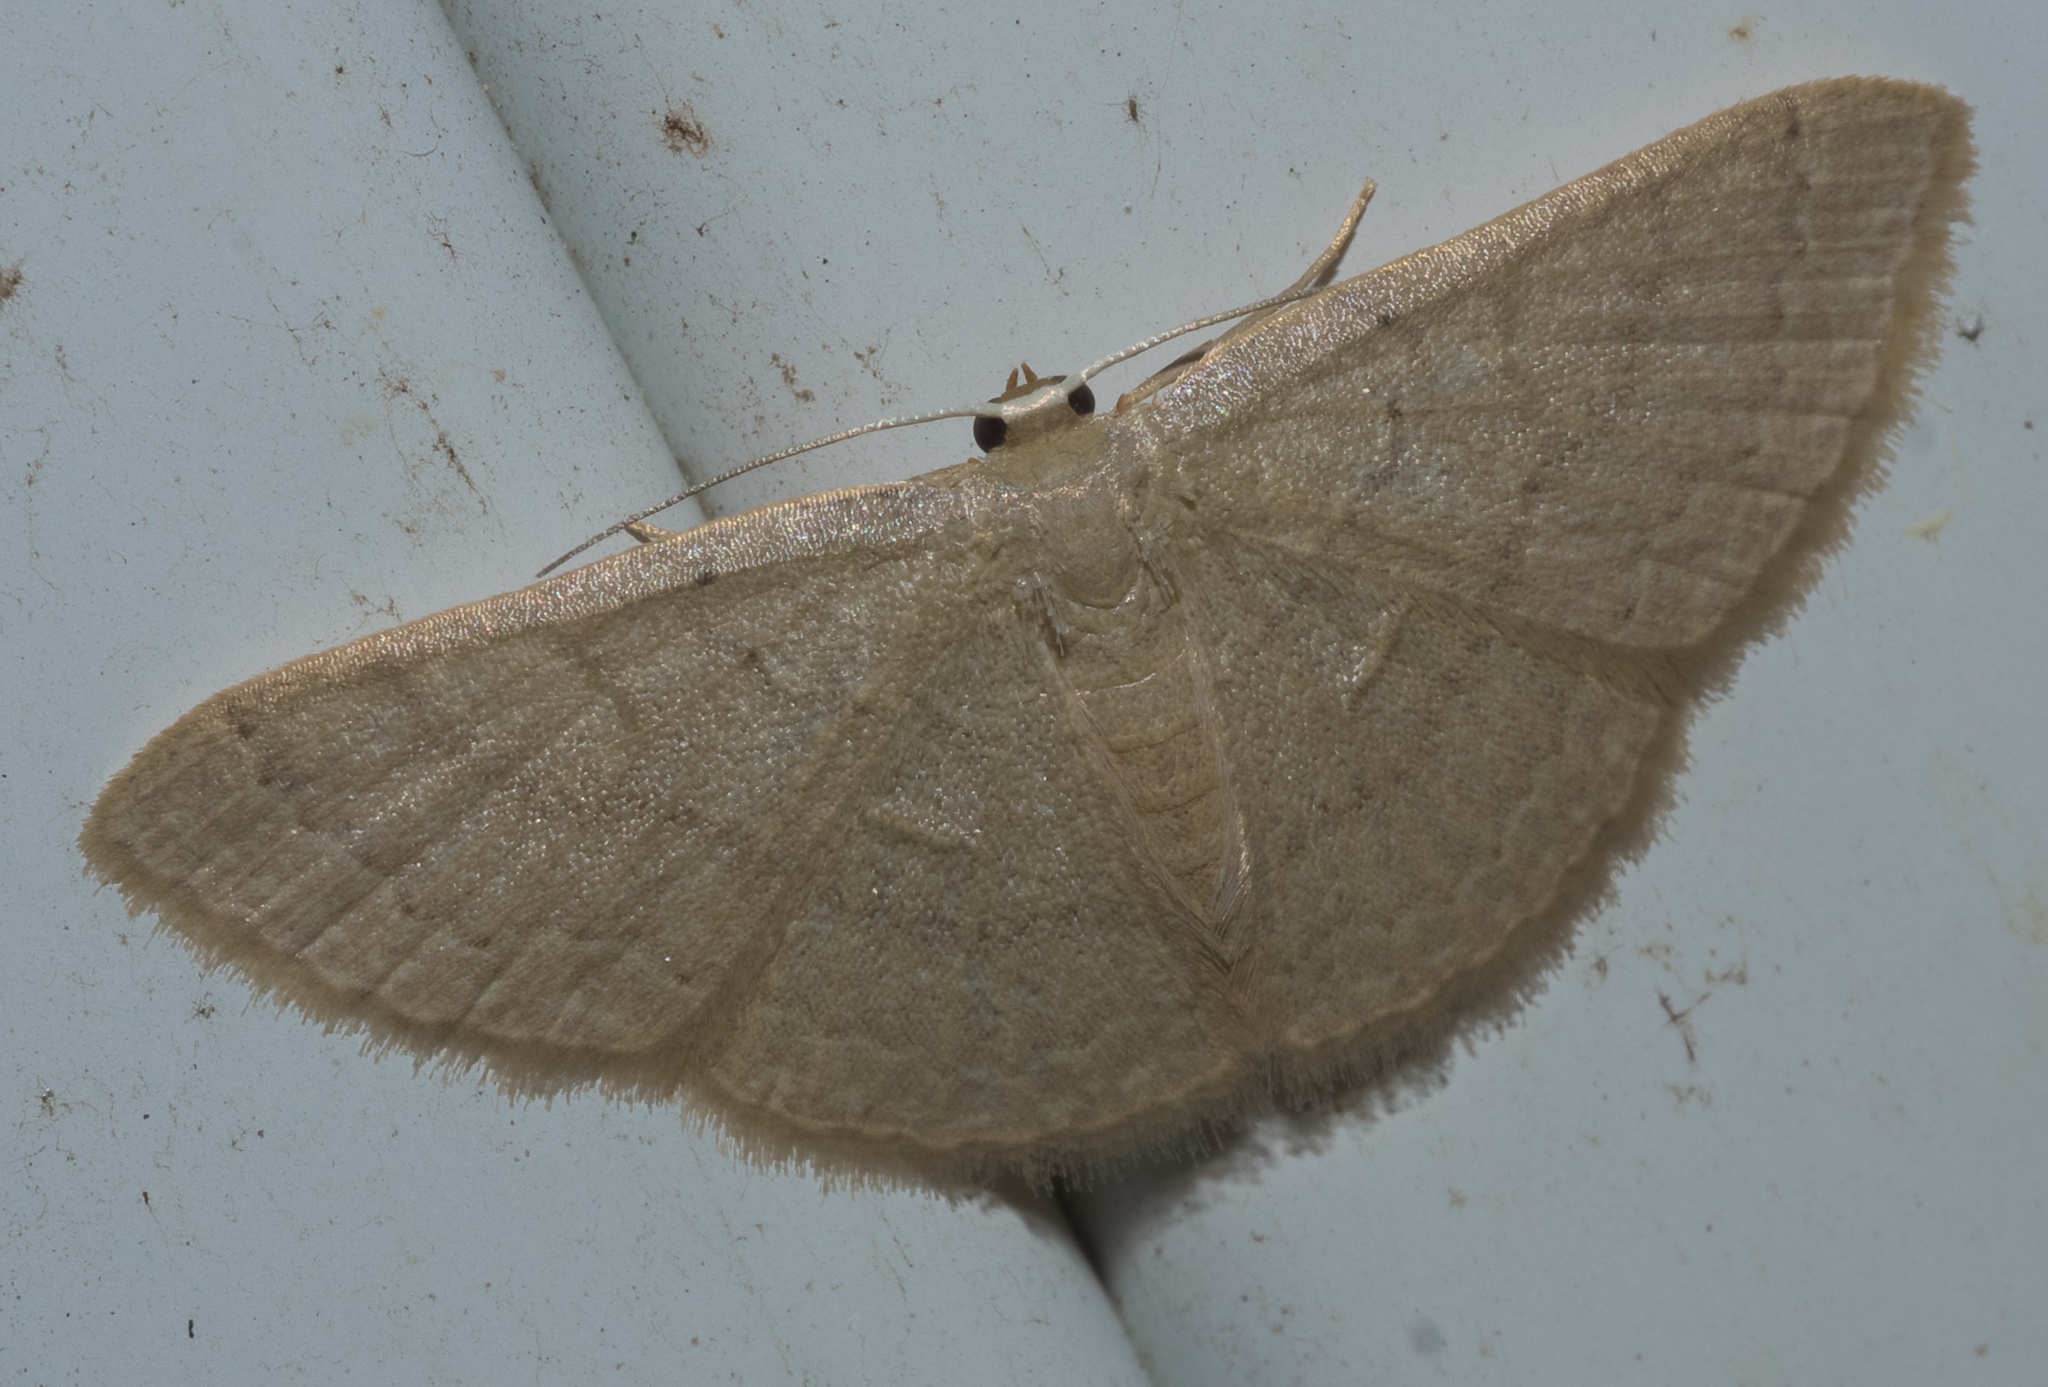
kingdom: Animalia
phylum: Arthropoda
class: Insecta
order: Lepidoptera
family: Geometridae
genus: Pleuroprucha
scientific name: Pleuroprucha insulsaria
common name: Common tan wave
